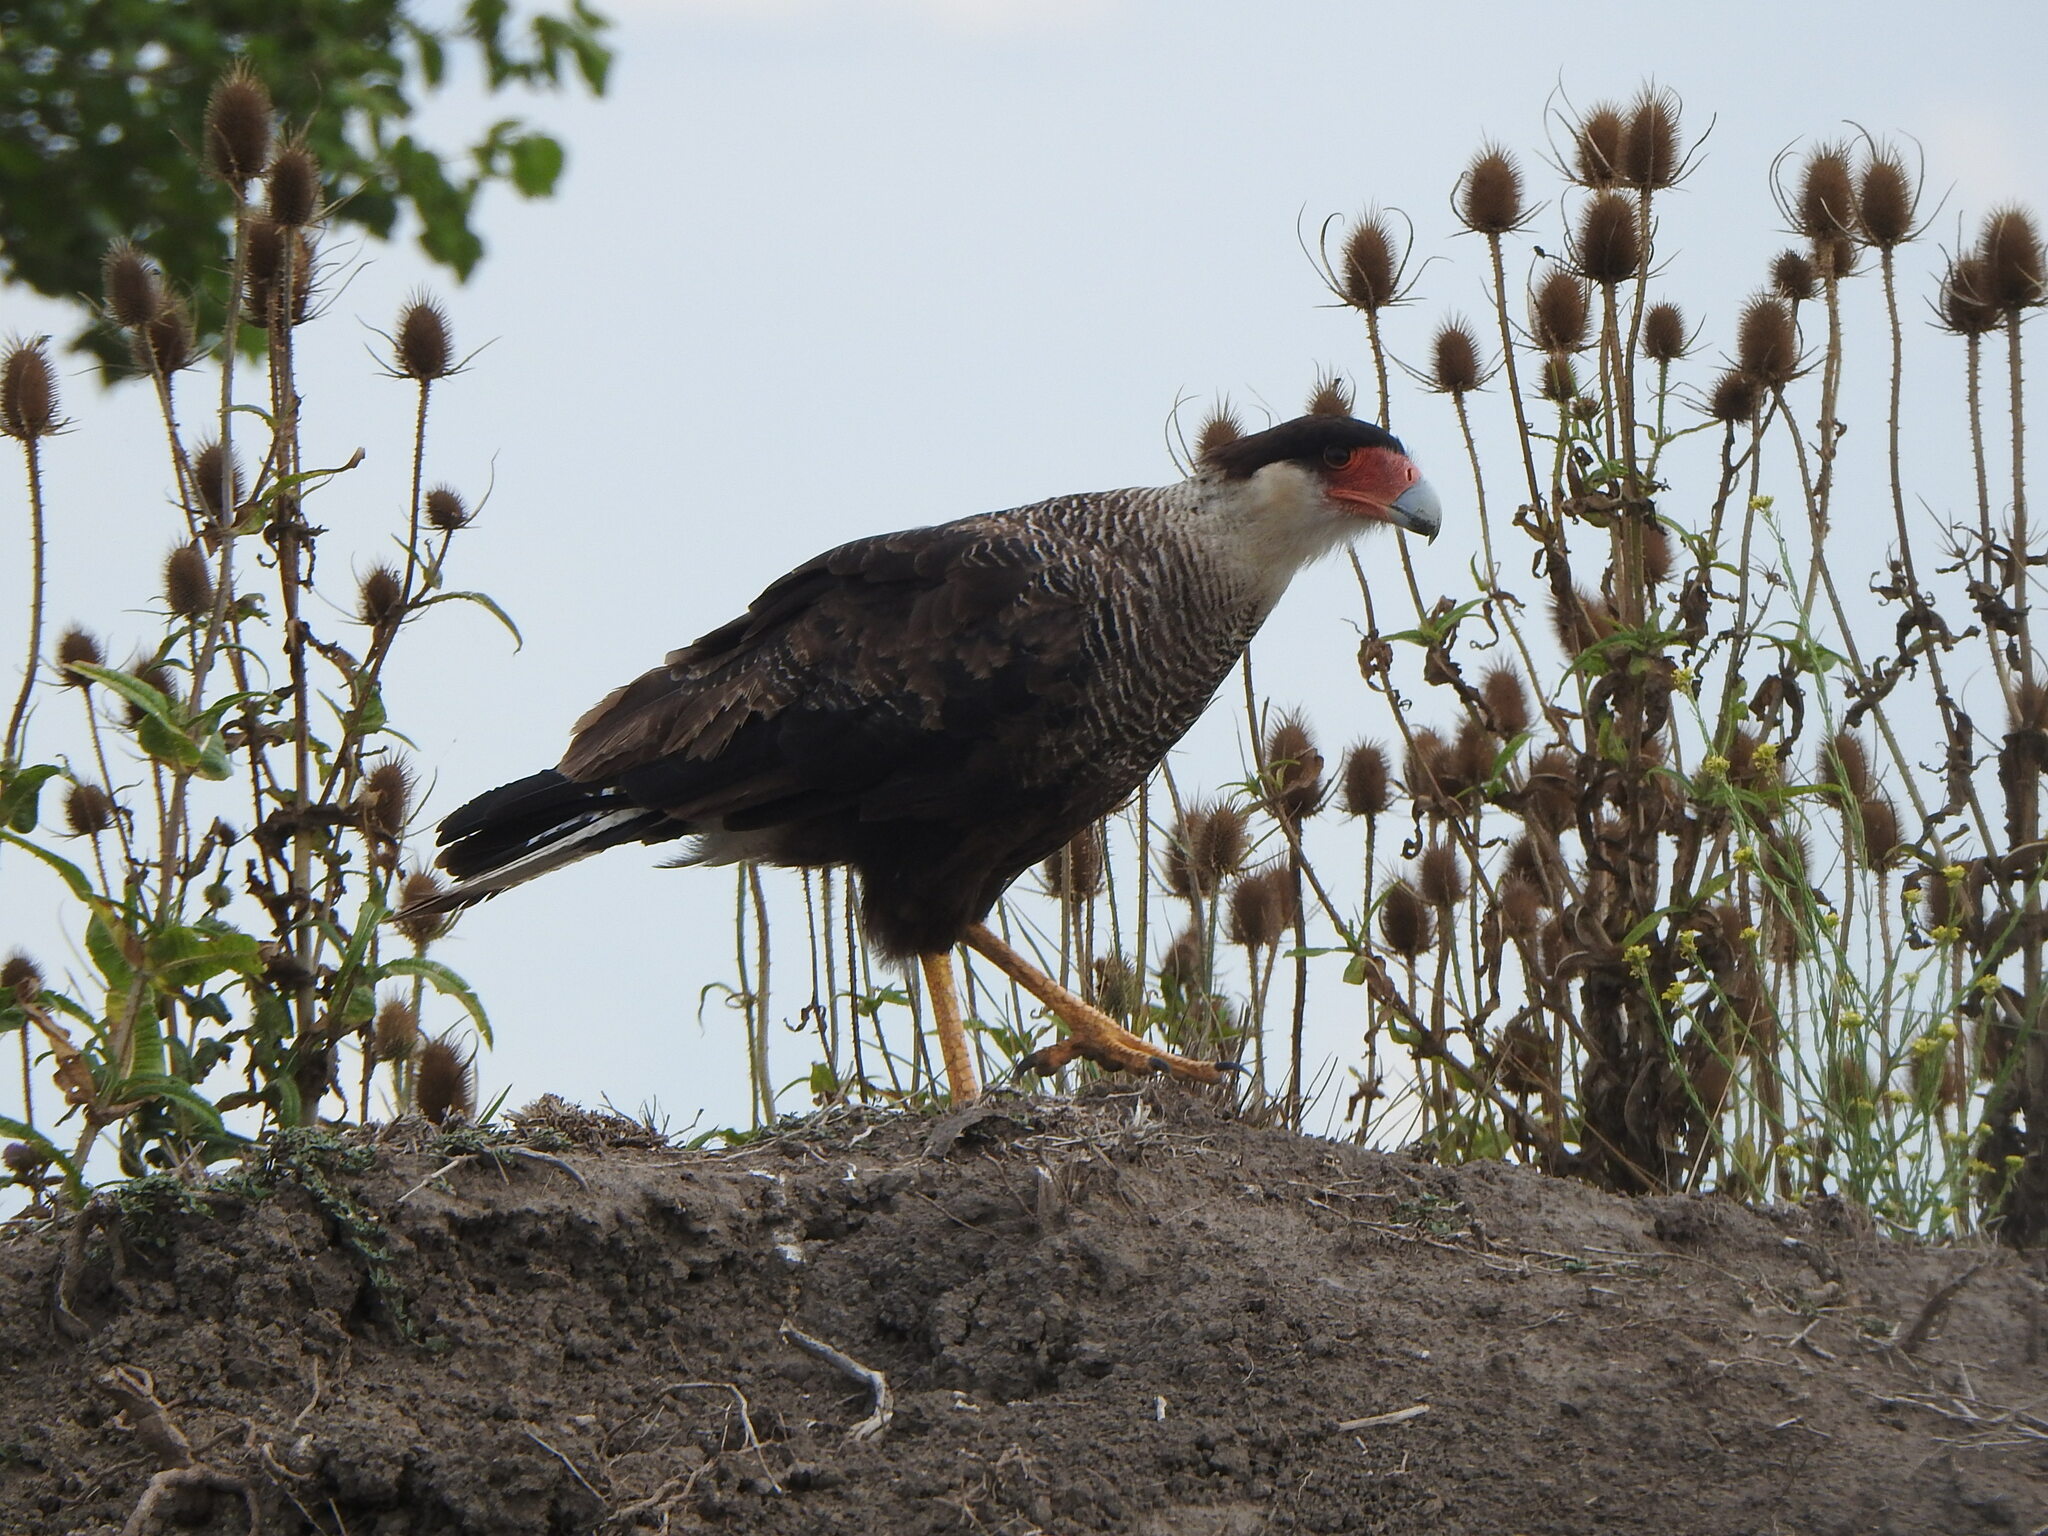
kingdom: Animalia
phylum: Chordata
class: Aves
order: Falconiformes
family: Falconidae
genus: Caracara
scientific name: Caracara plancus
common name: Southern caracara
